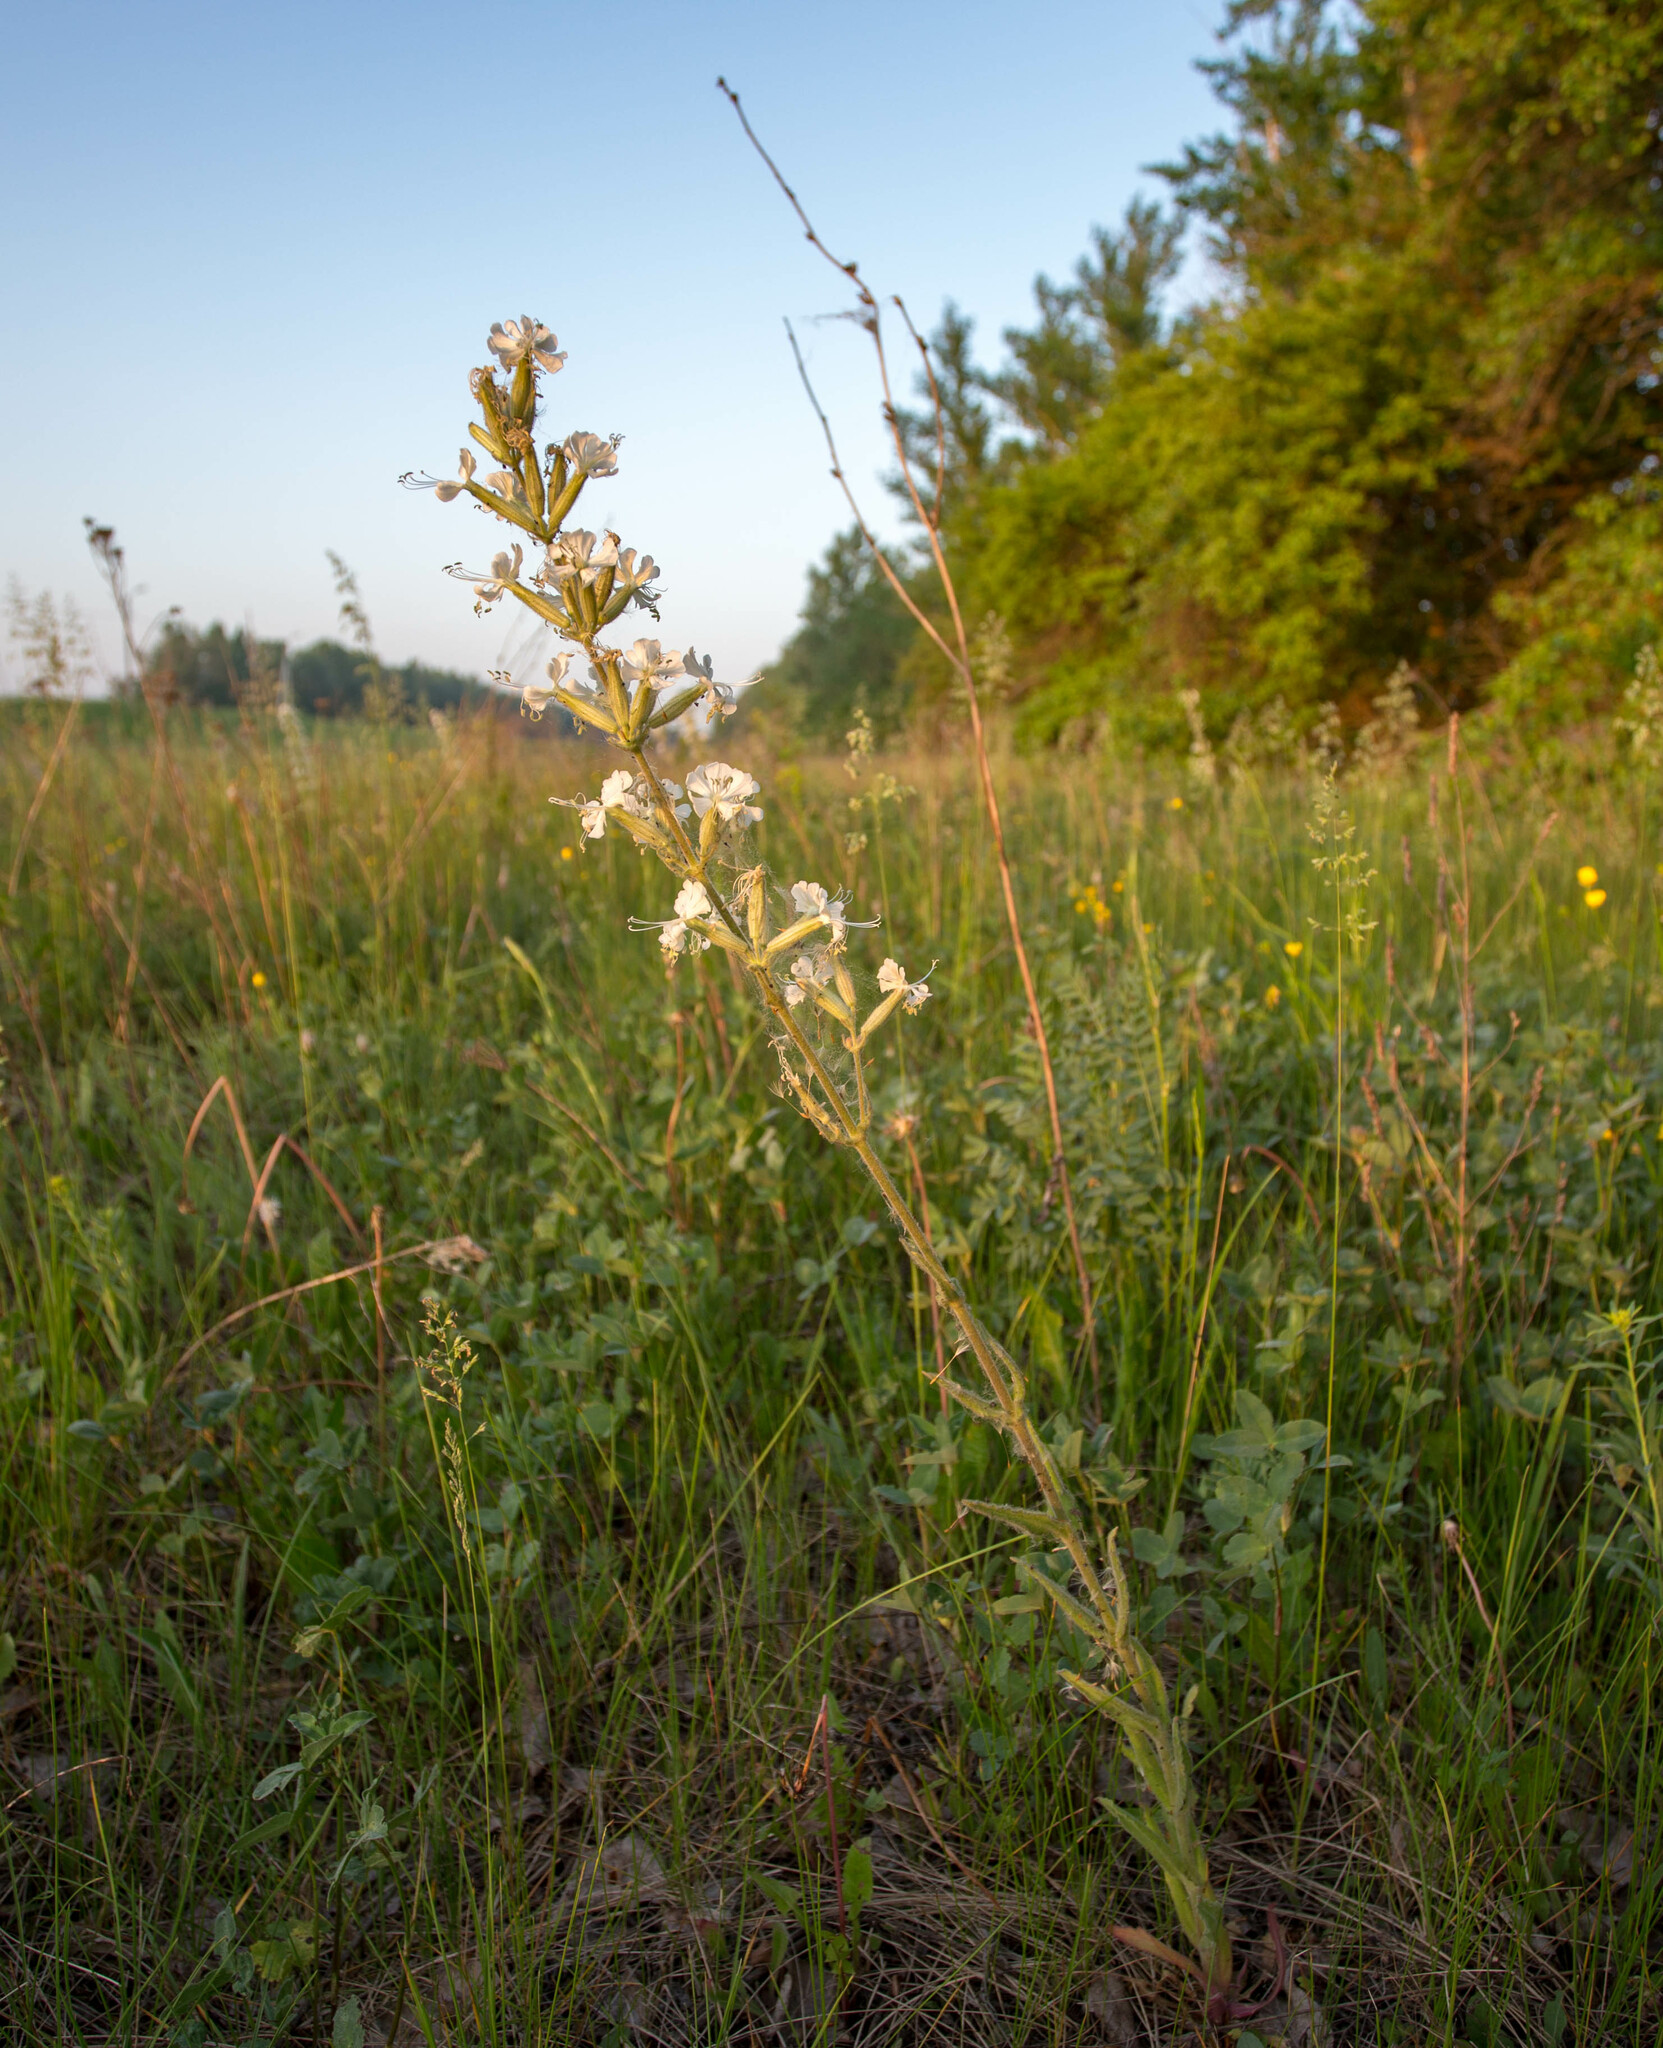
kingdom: Plantae
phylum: Tracheophyta
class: Magnoliopsida
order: Caryophyllales
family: Caryophyllaceae
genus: Silene
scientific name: Silene viscosa
